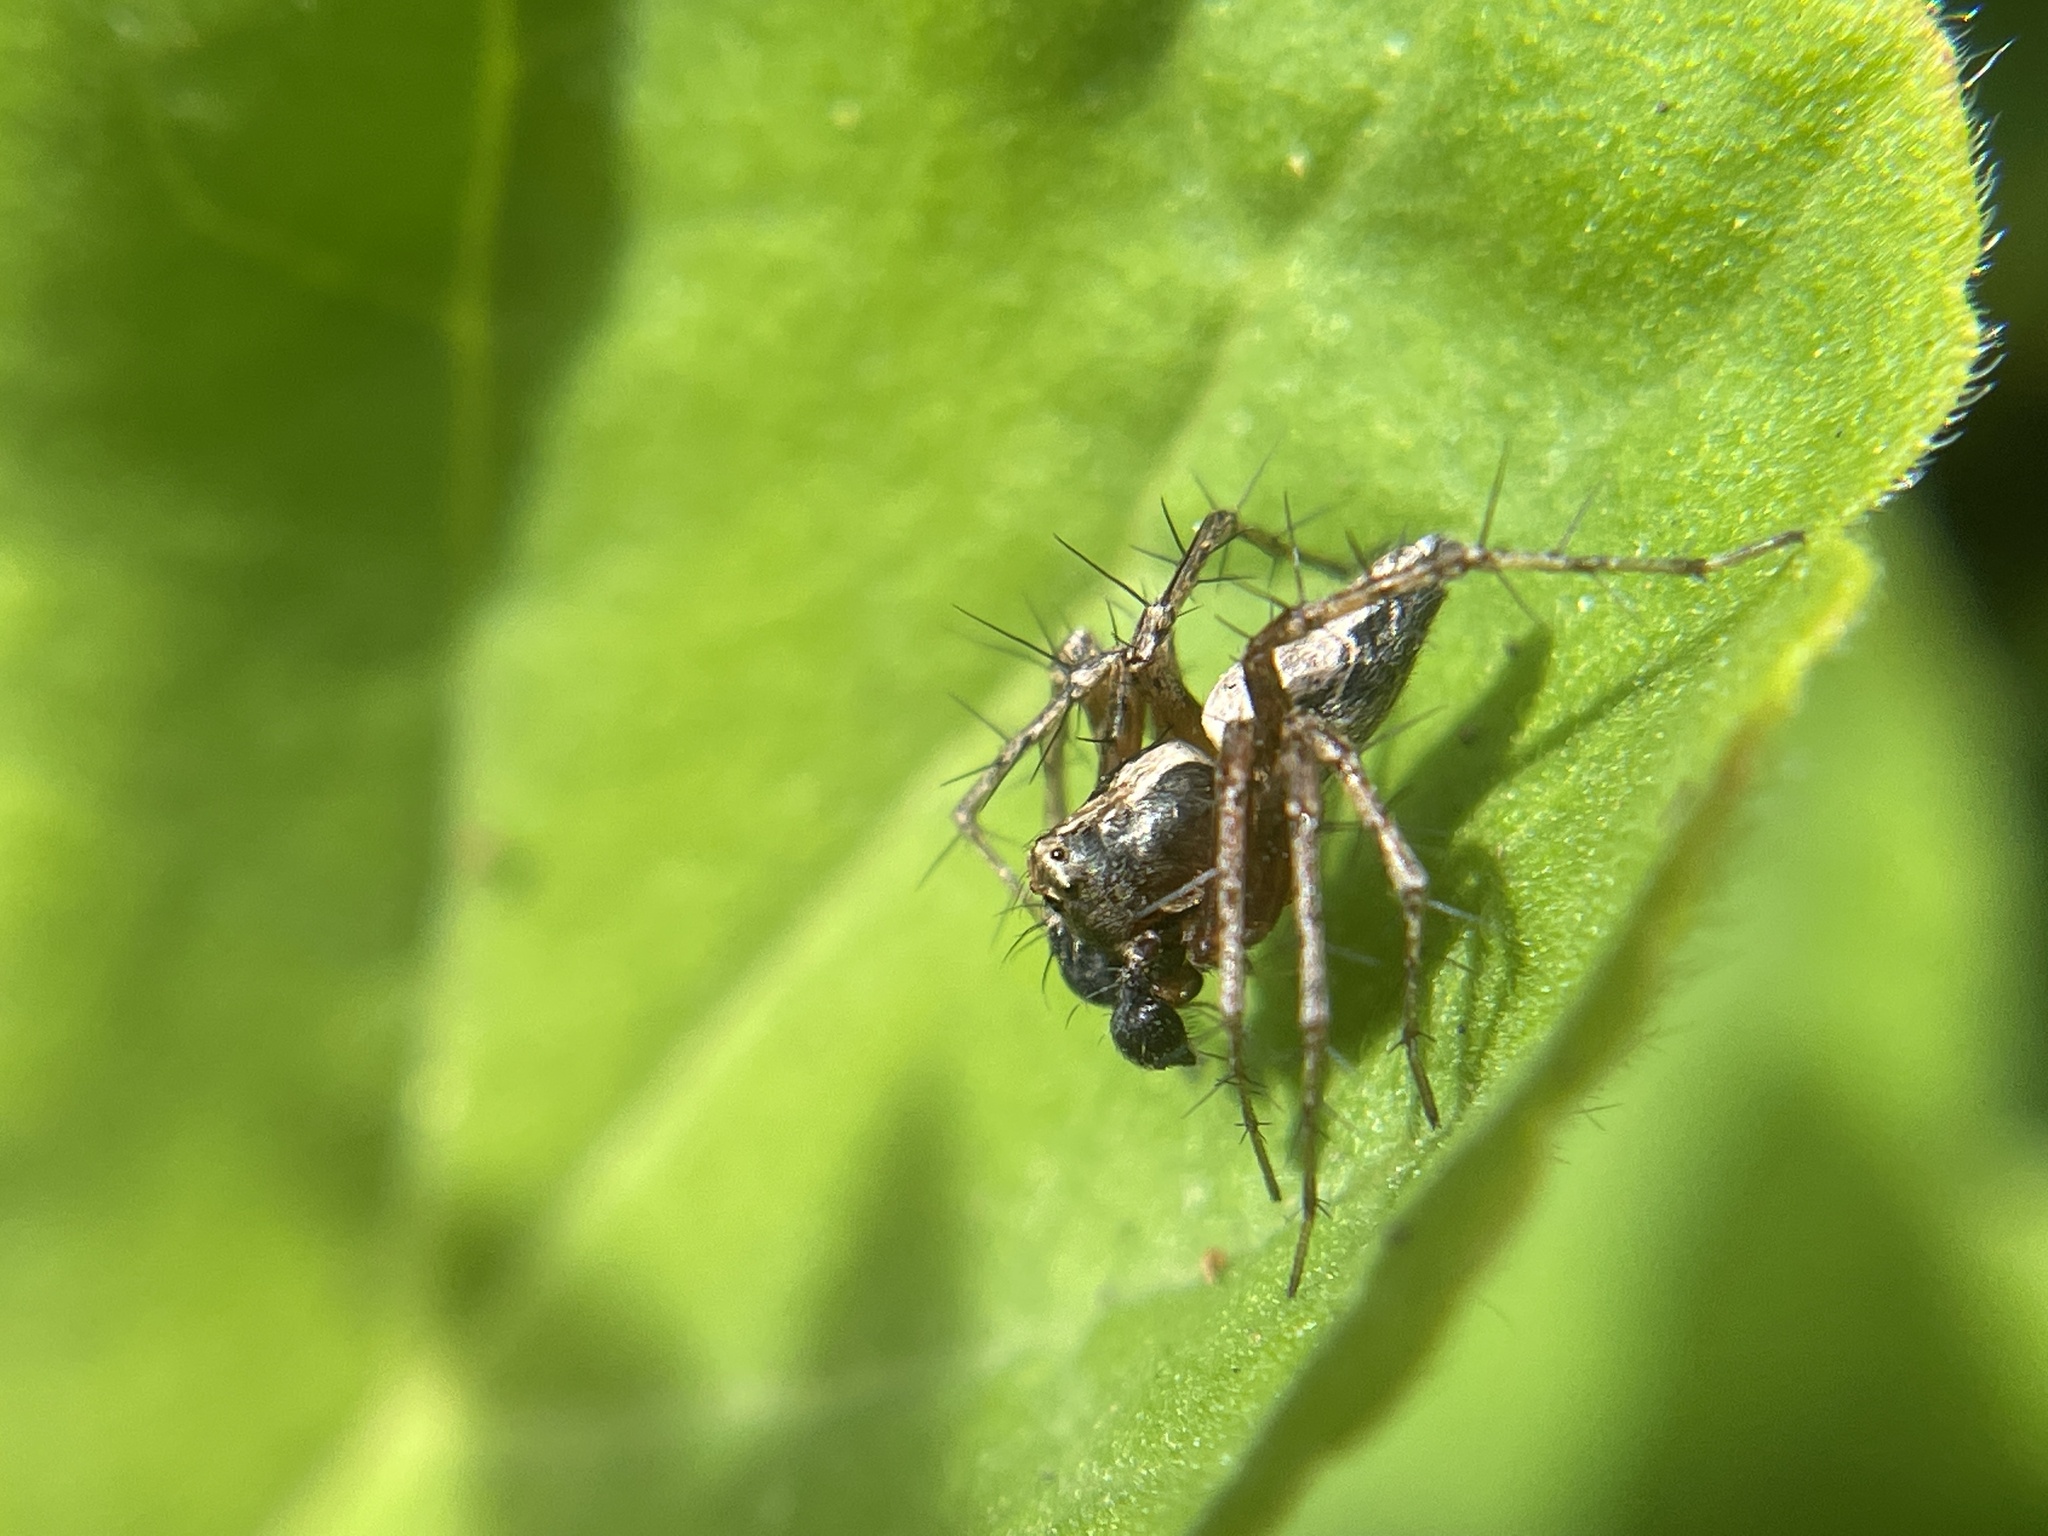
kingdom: Animalia
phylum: Arthropoda
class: Arachnida
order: Araneae
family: Oxyopidae
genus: Oxyopes
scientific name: Oxyopes scalaris
